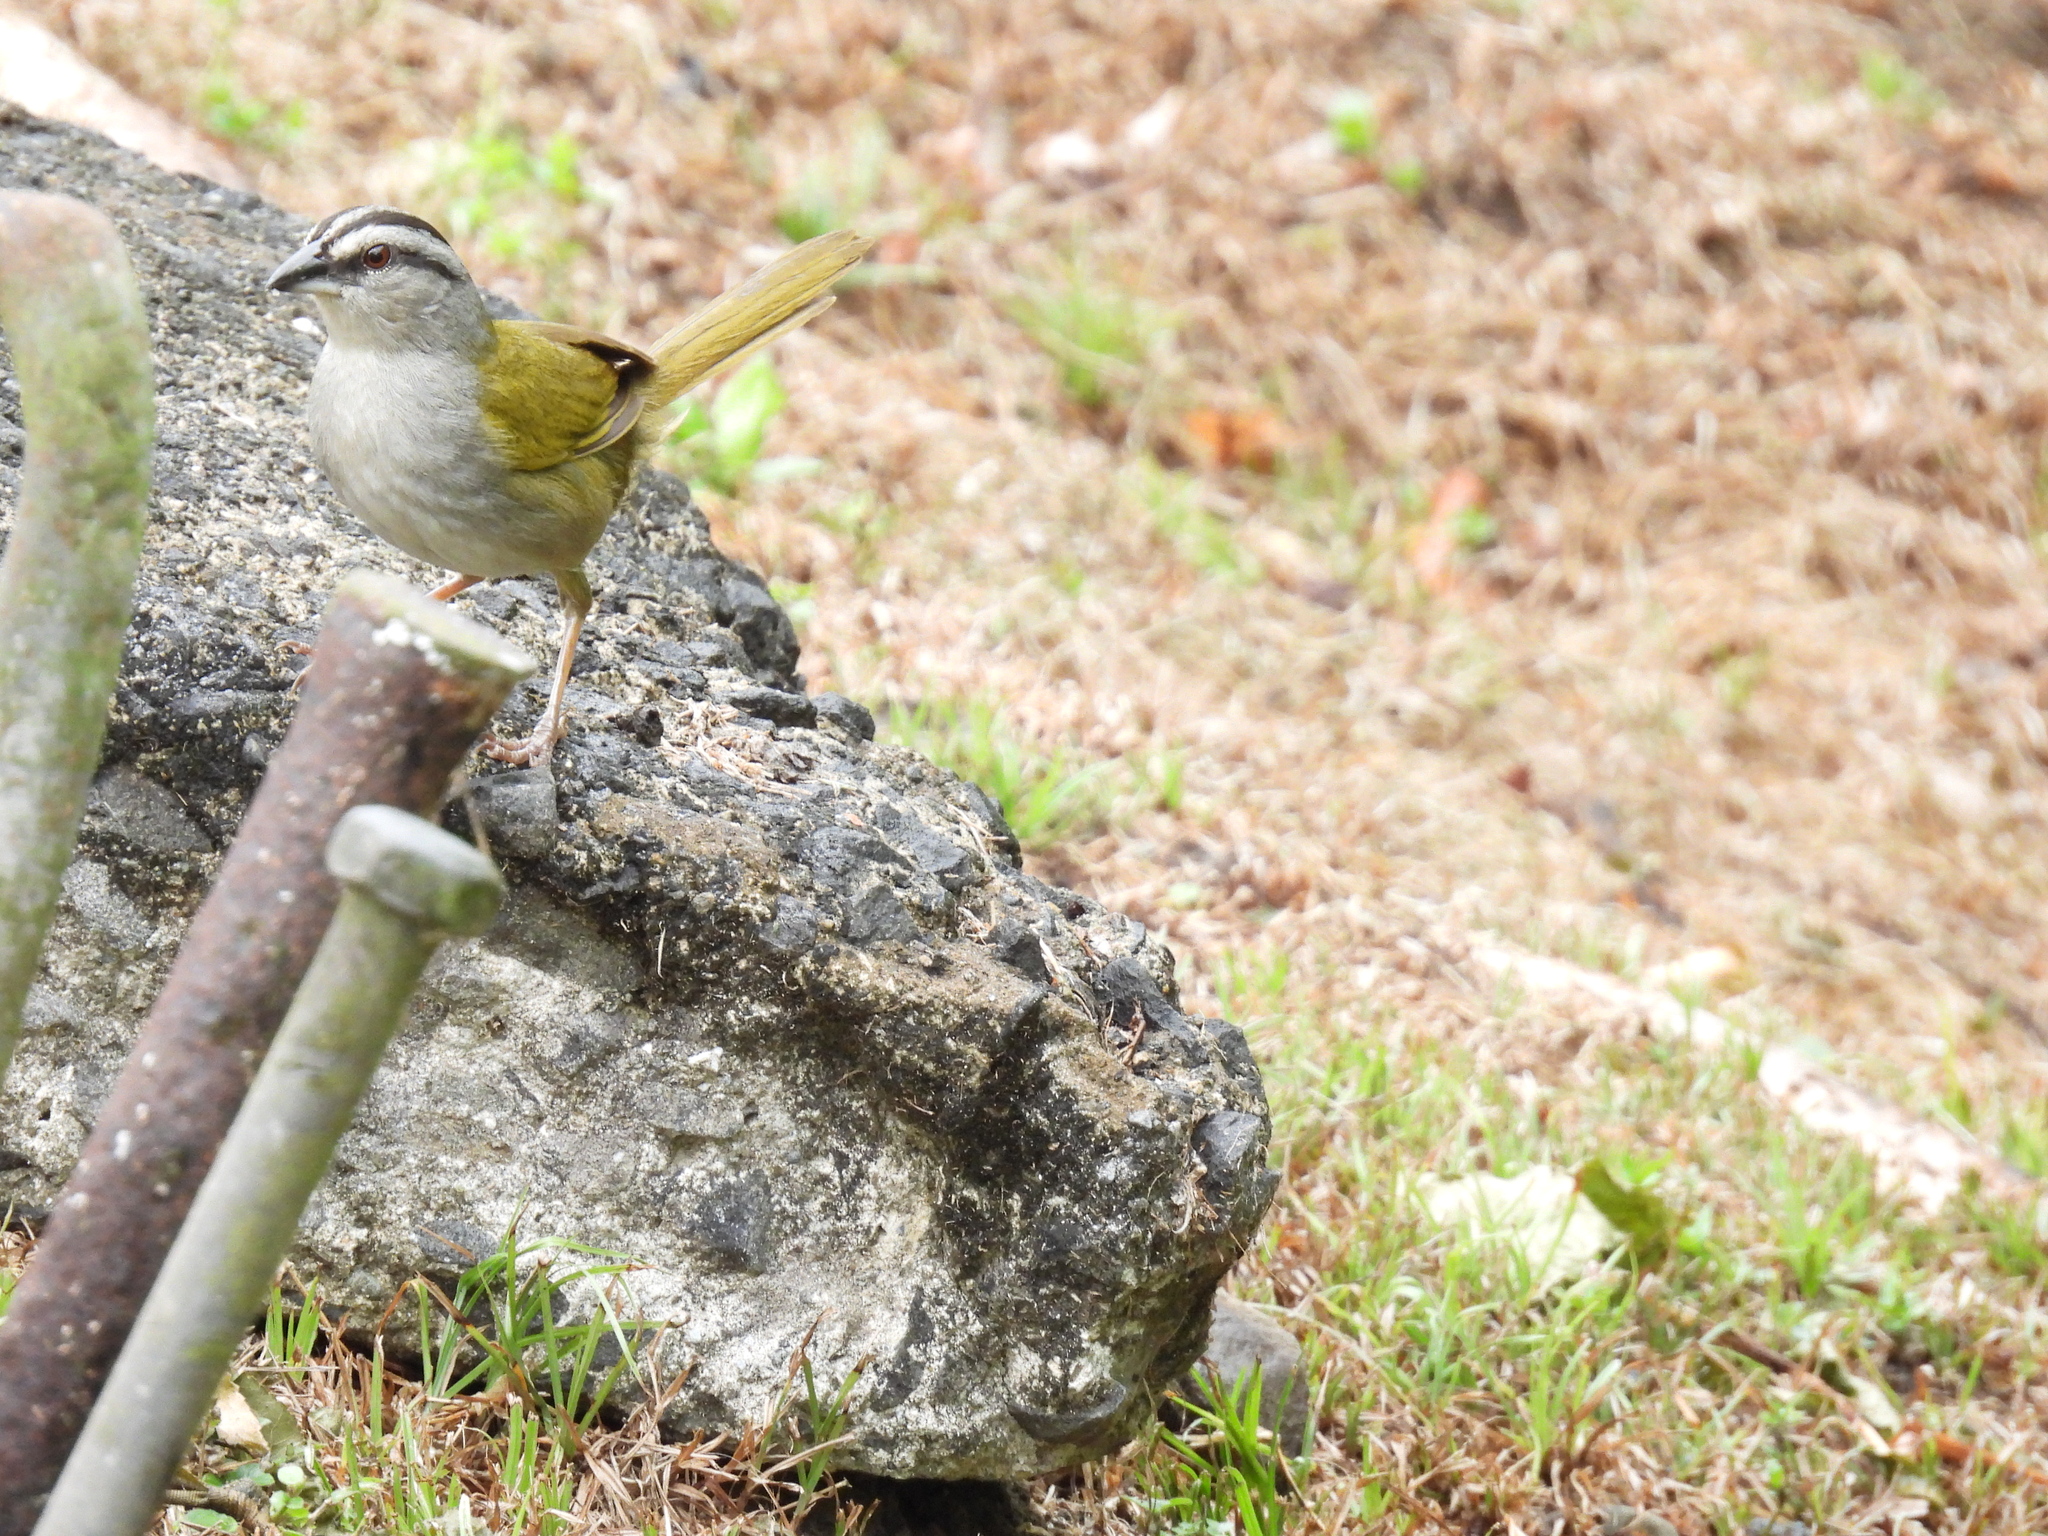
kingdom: Animalia
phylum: Chordata
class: Aves
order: Passeriformes
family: Passerellidae
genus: Arremonops
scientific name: Arremonops conirostris
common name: Black-striped sparrow
